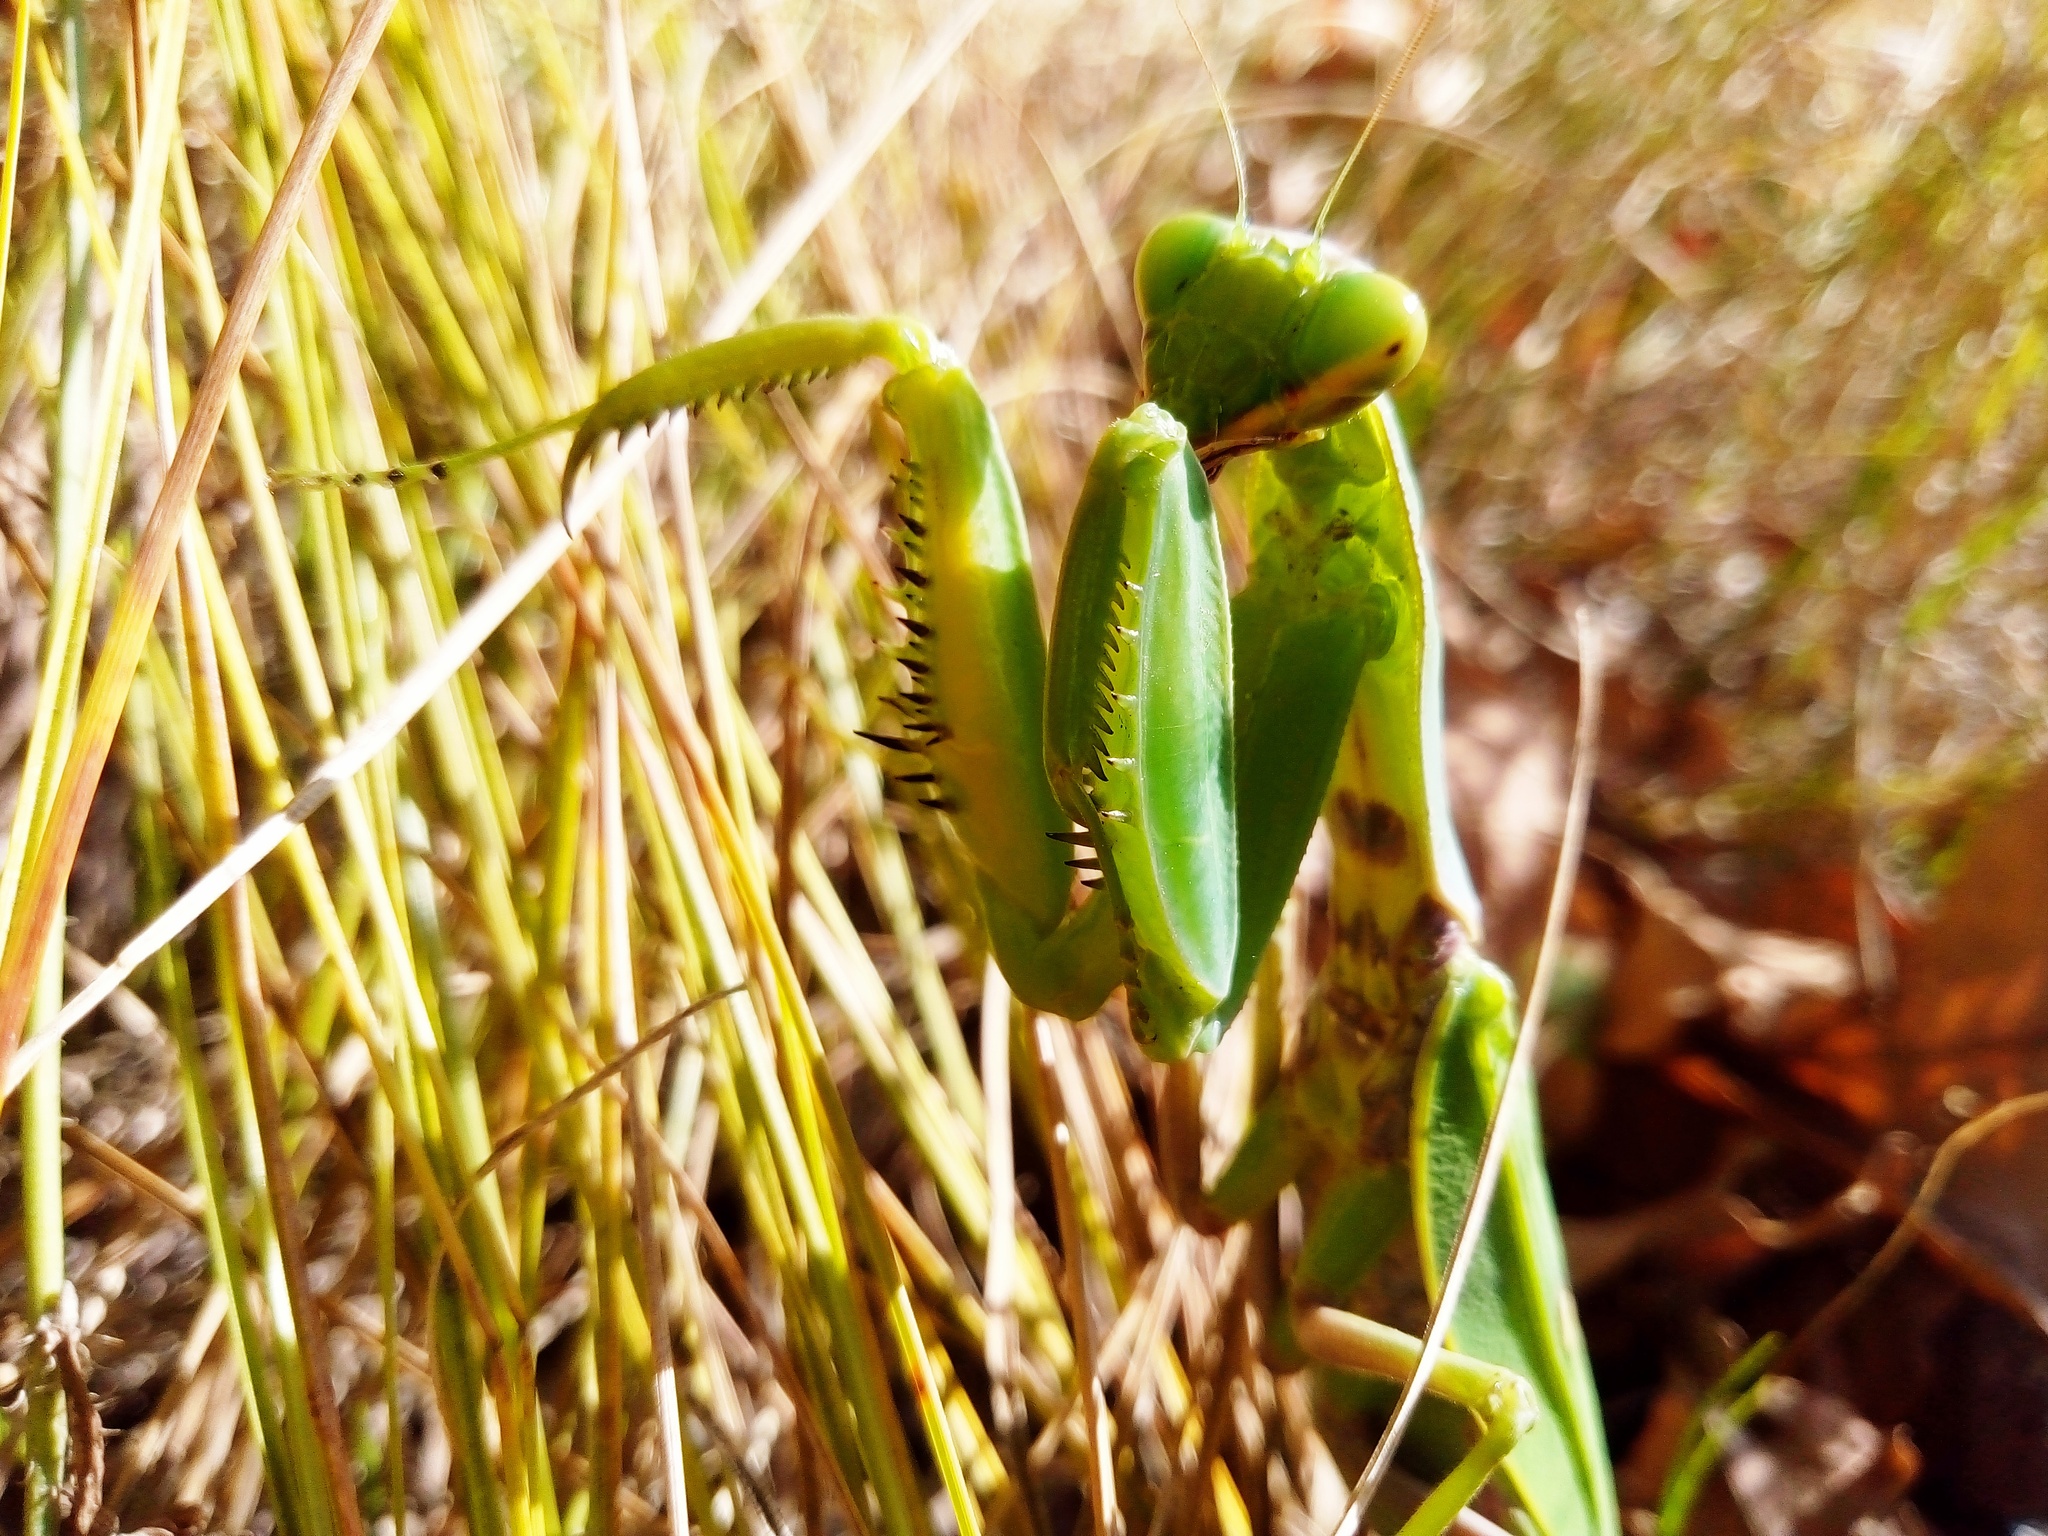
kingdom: Animalia
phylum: Arthropoda
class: Insecta
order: Mantodea
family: Mantidae
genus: Hierodula
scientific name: Hierodula transcaucasica
